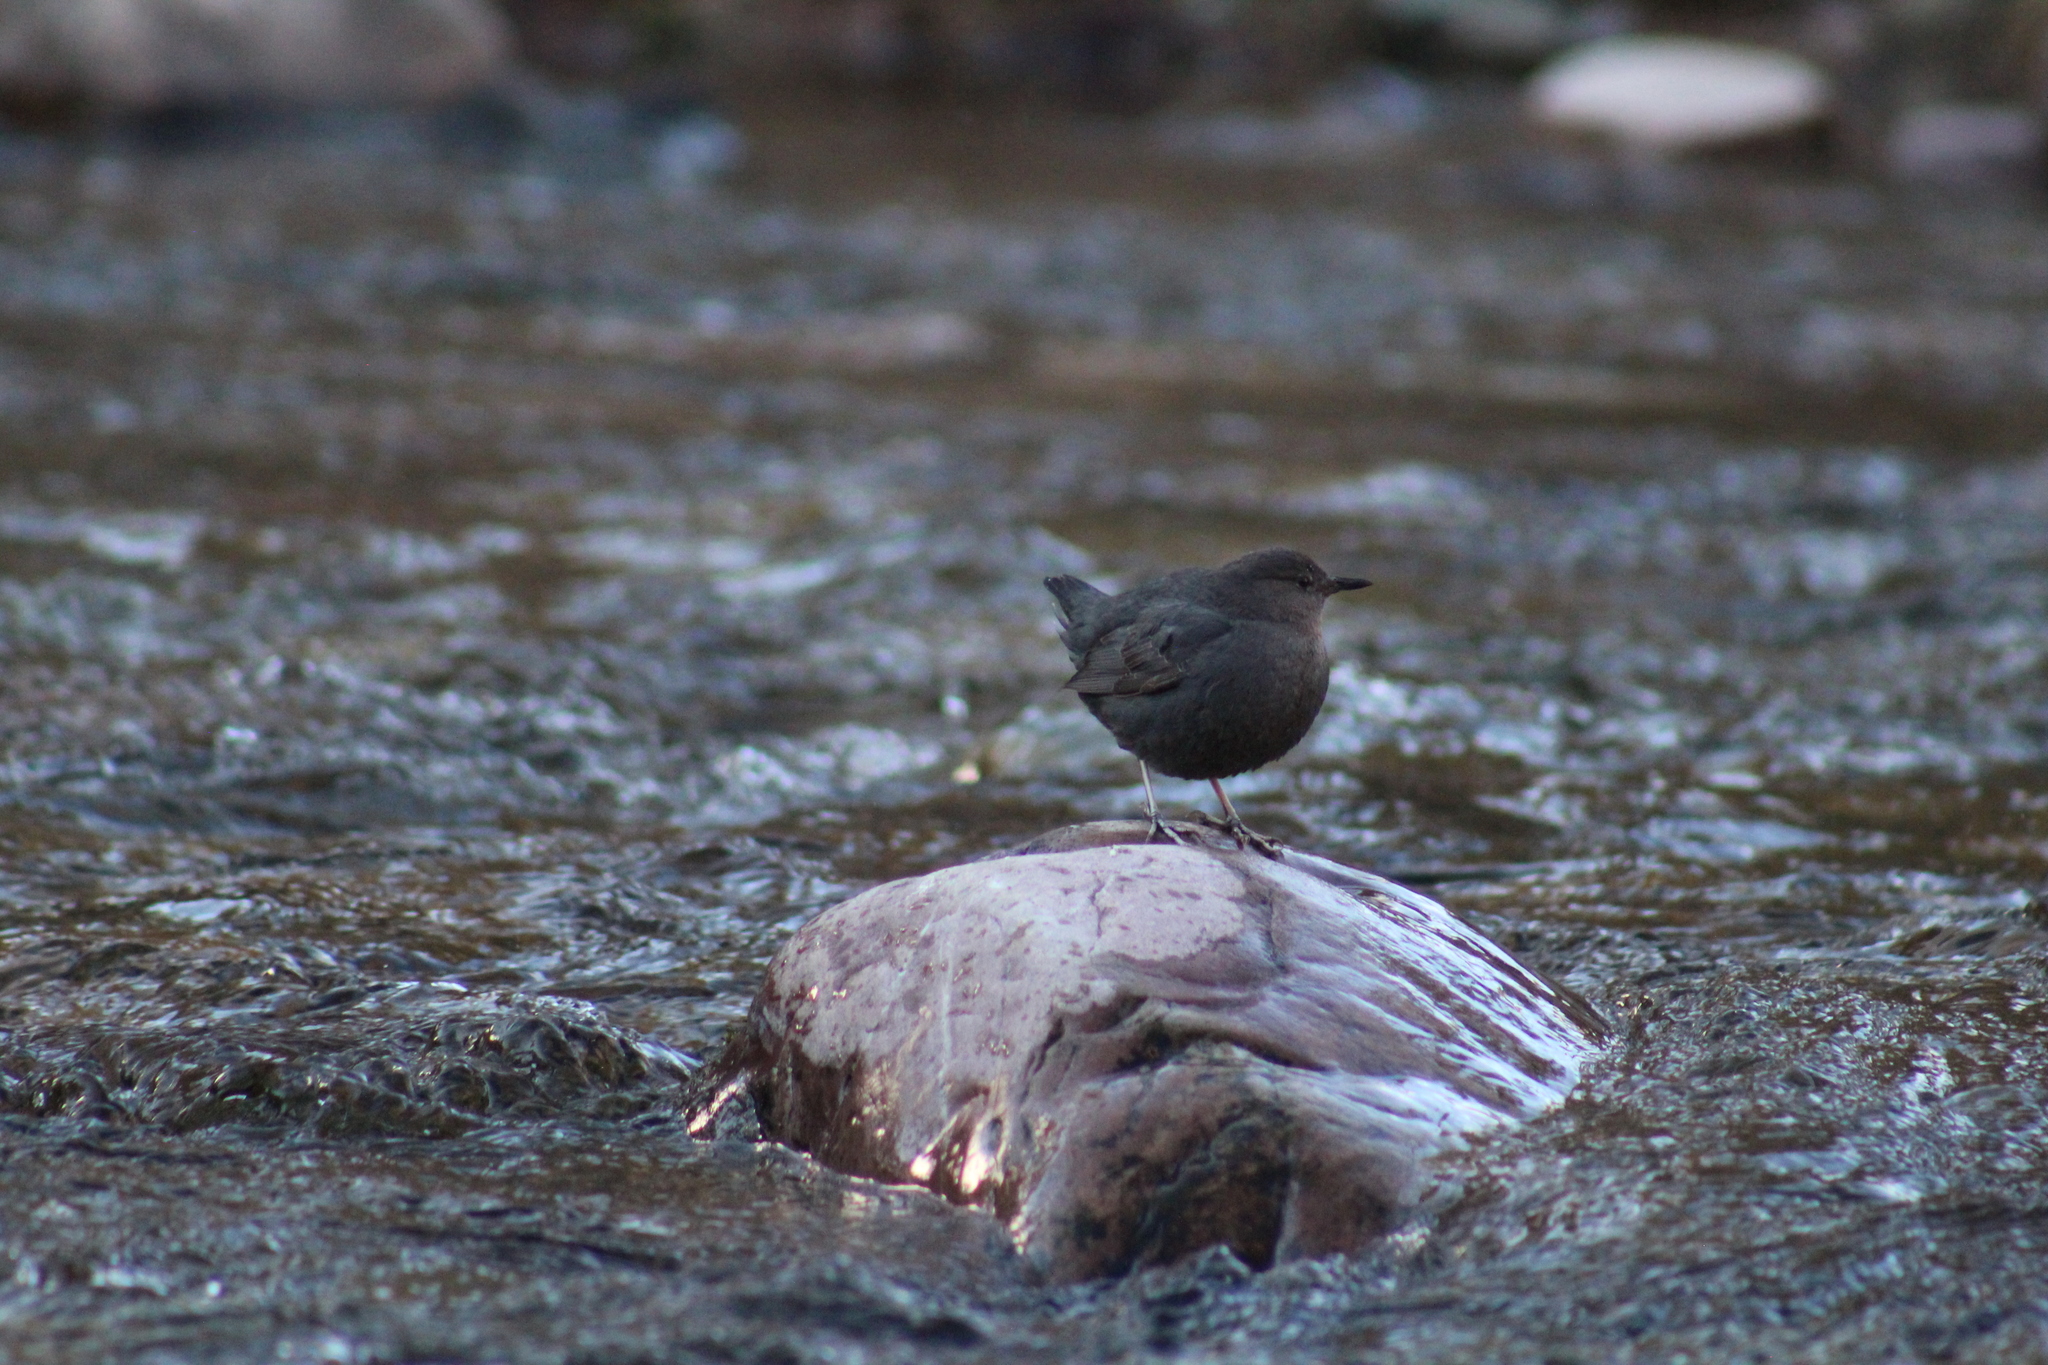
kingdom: Animalia
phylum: Chordata
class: Aves
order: Passeriformes
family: Cinclidae
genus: Cinclus
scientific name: Cinclus mexicanus
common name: American dipper
